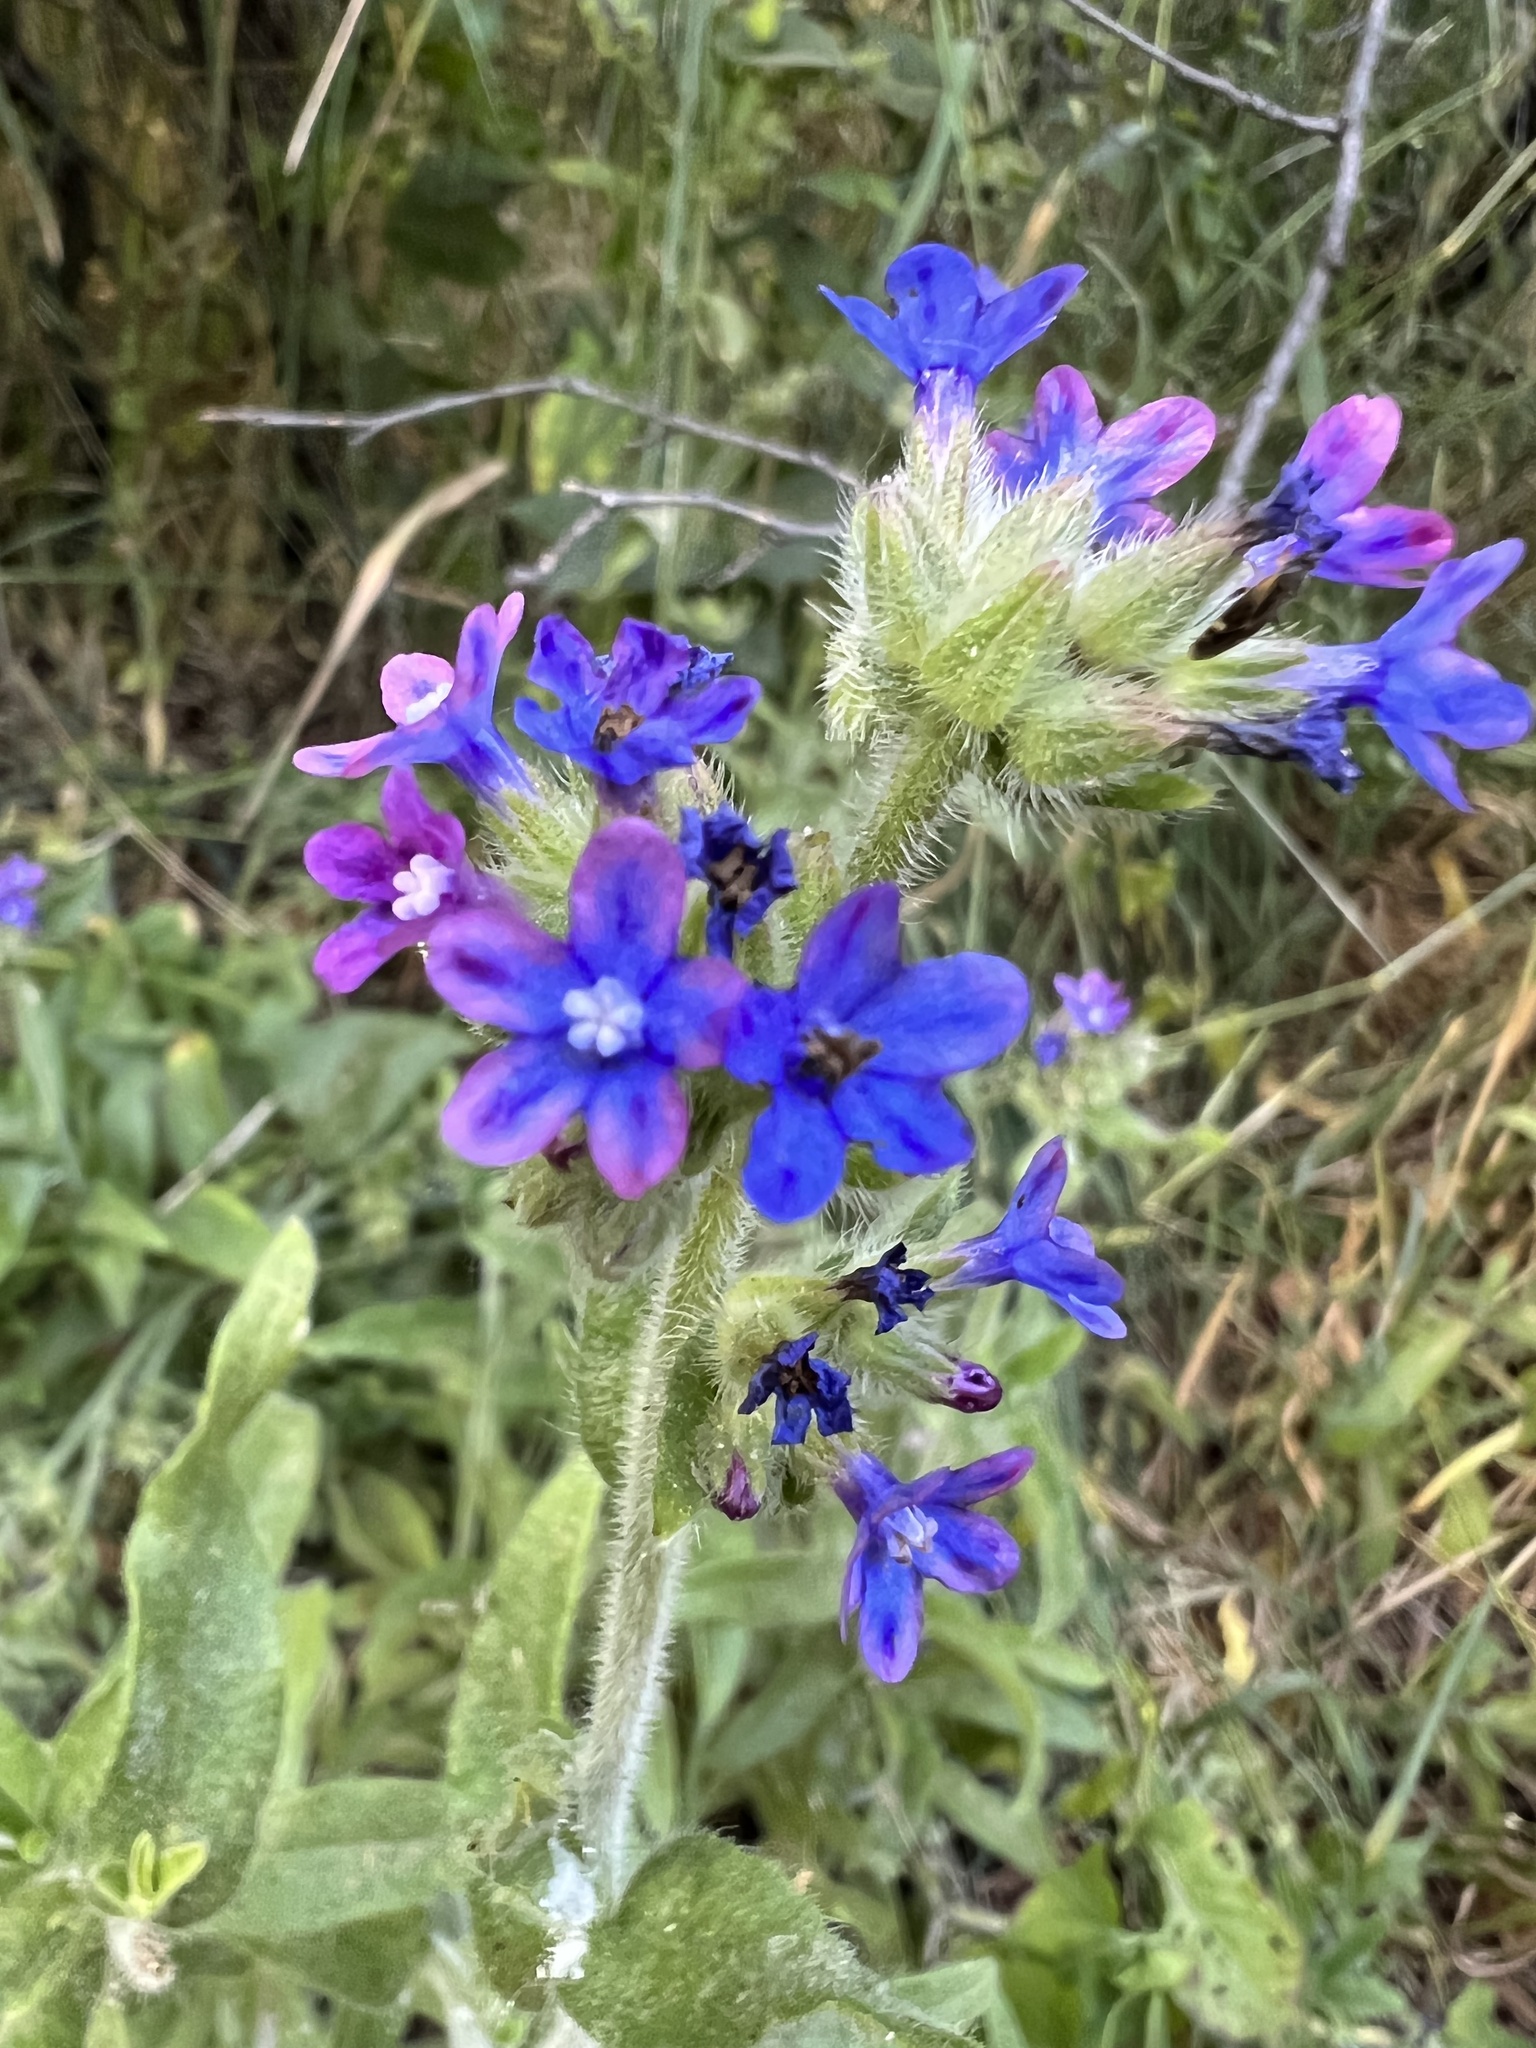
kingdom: Plantae
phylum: Tracheophyta
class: Magnoliopsida
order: Boraginales
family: Boraginaceae
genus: Anchusa
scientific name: Anchusa officinalis
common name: Alkanet
